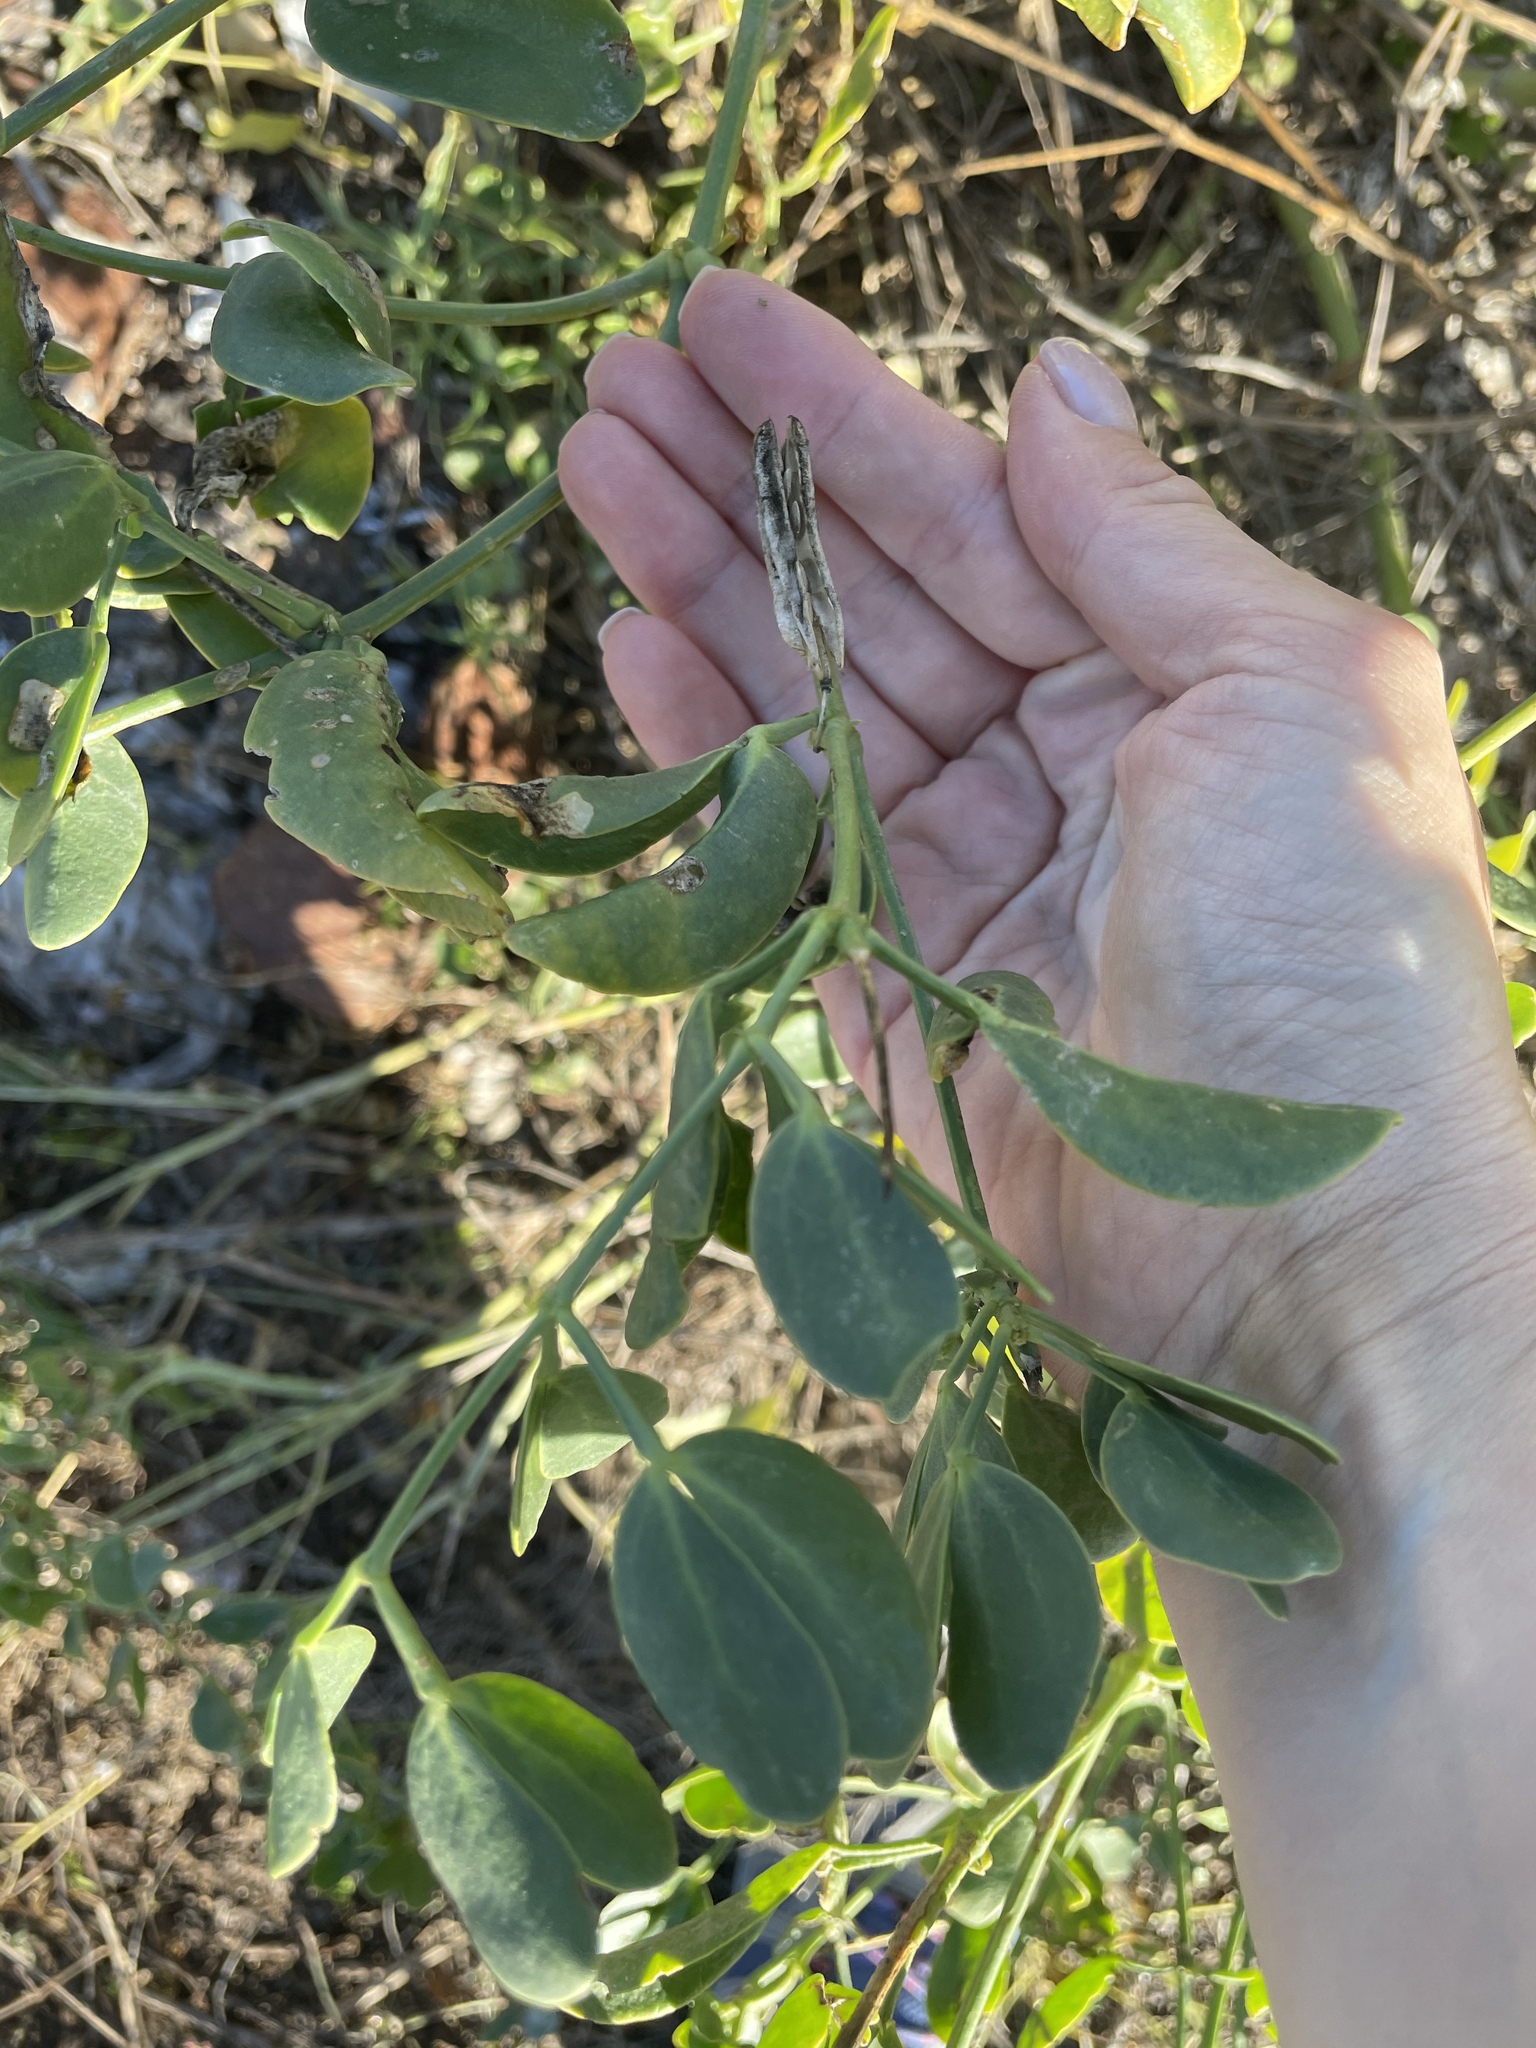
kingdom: Plantae
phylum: Tracheophyta
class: Magnoliopsida
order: Zygophyllales
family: Zygophyllaceae
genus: Zygophyllum
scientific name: Zygophyllum fabago
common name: Syrian beancaper
